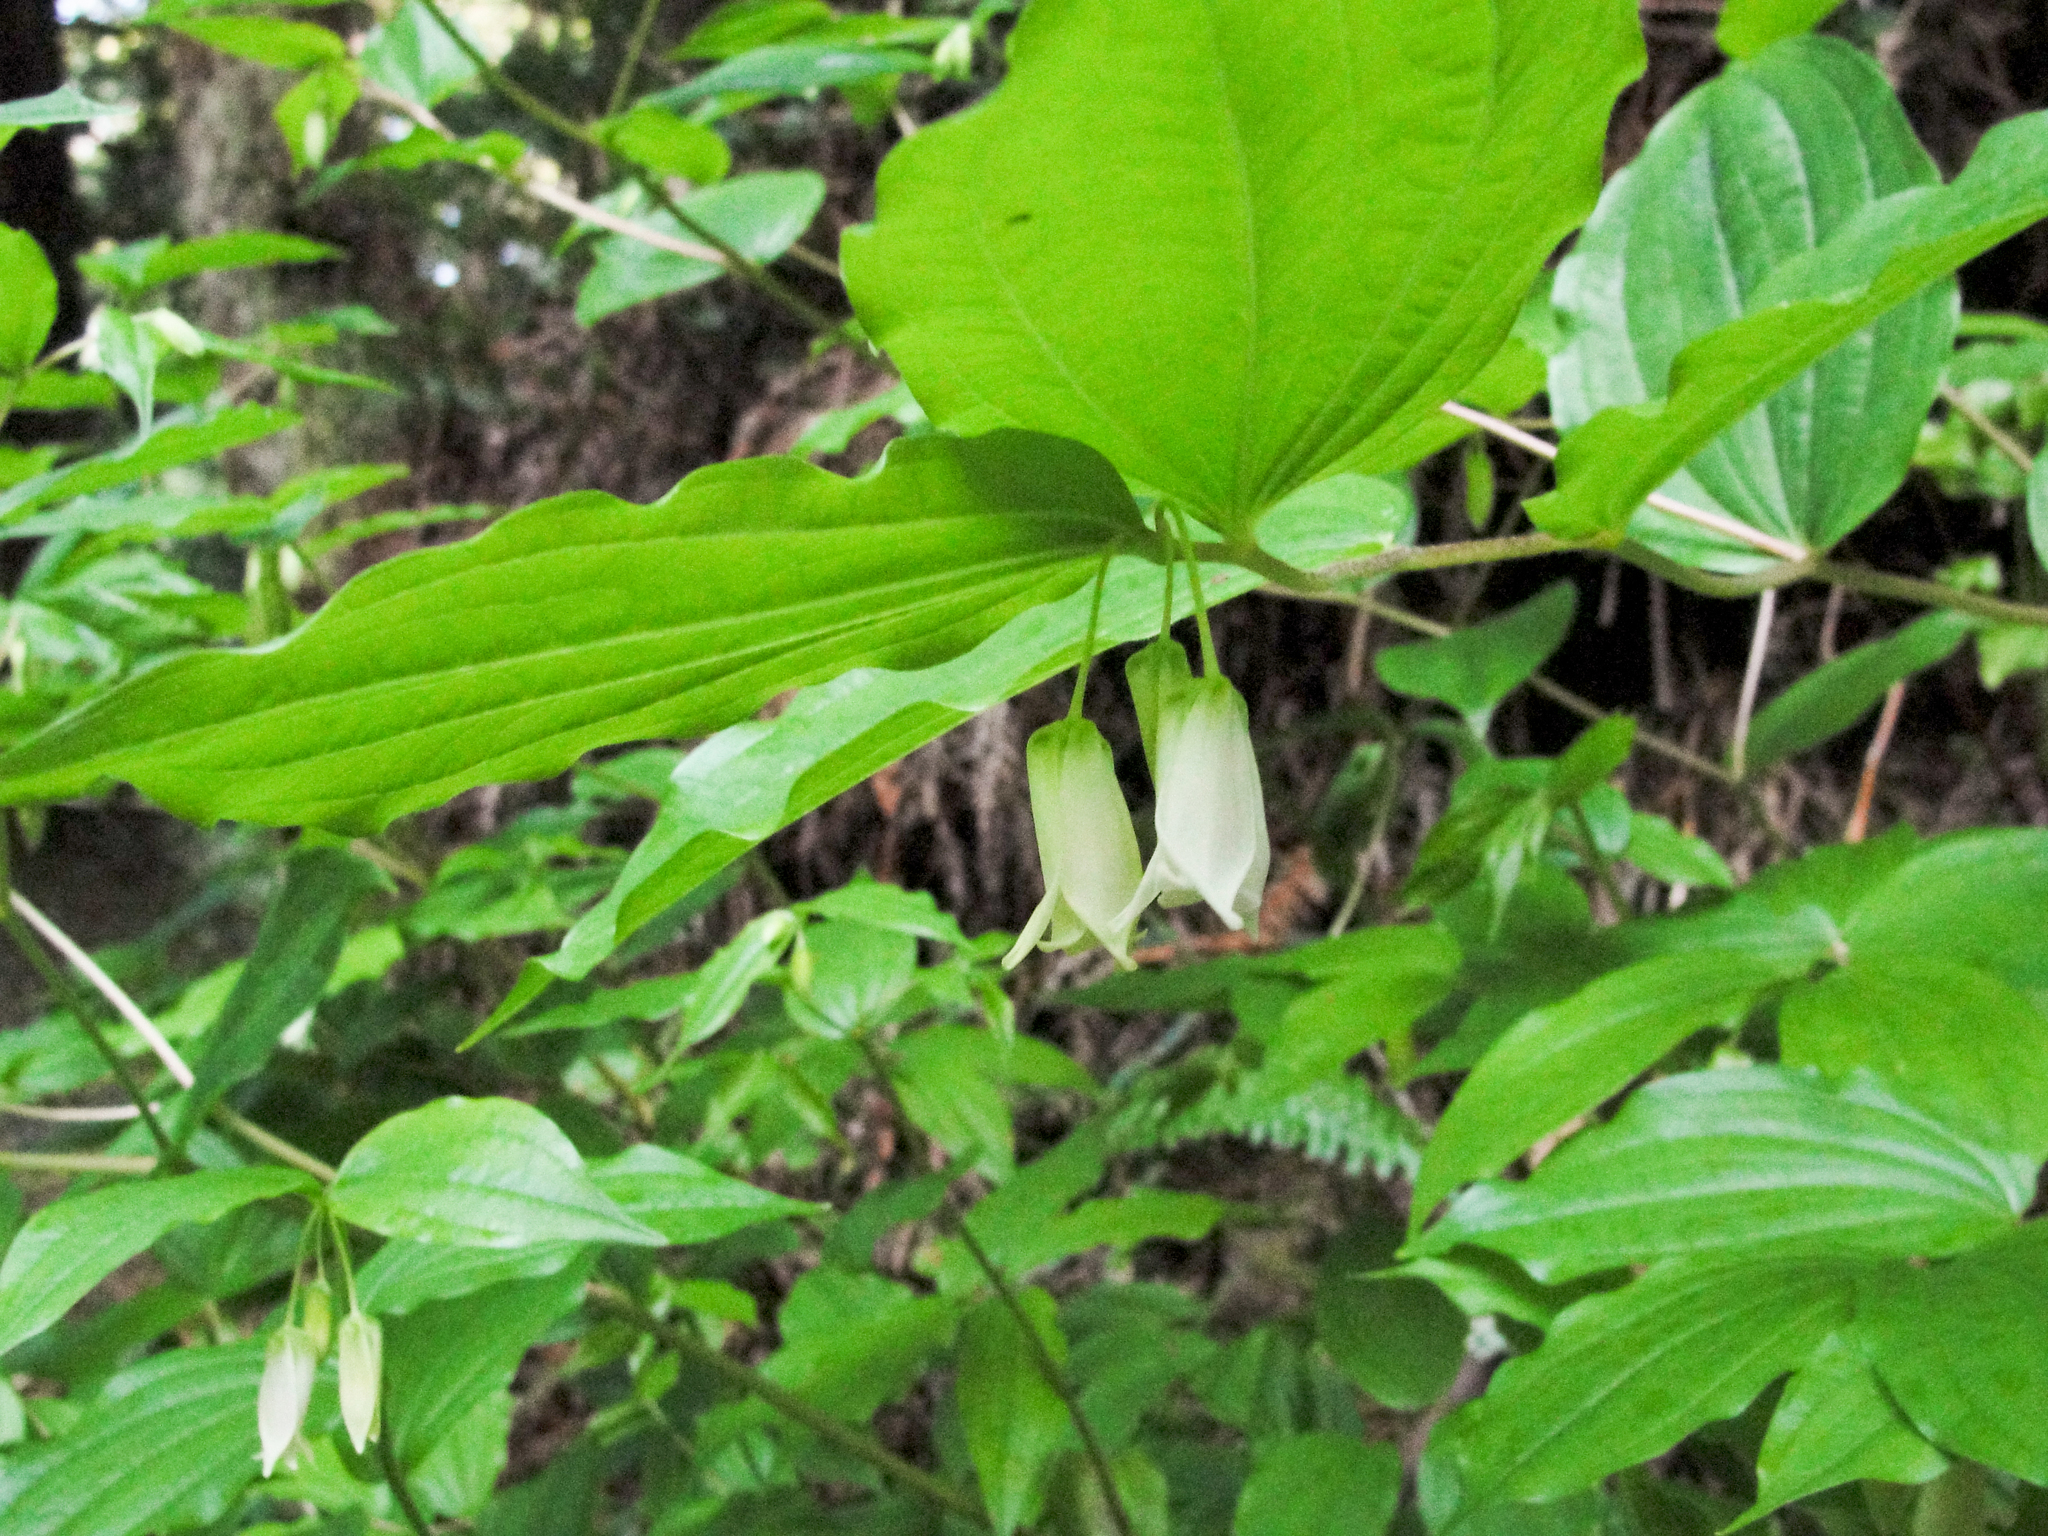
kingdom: Plantae
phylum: Tracheophyta
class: Liliopsida
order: Liliales
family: Liliaceae
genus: Prosartes
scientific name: Prosartes smithii
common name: Fairy-lantern
